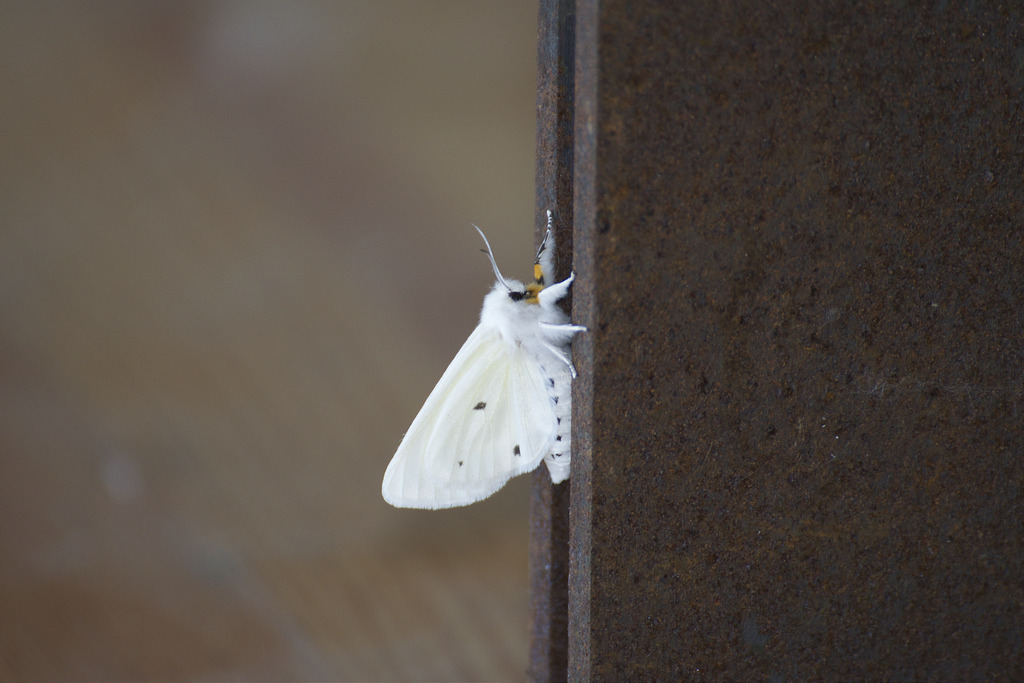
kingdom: Animalia
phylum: Arthropoda
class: Insecta
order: Lepidoptera
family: Erebidae
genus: Spilosoma
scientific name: Spilosoma virginica
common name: Virginia tiger moth
